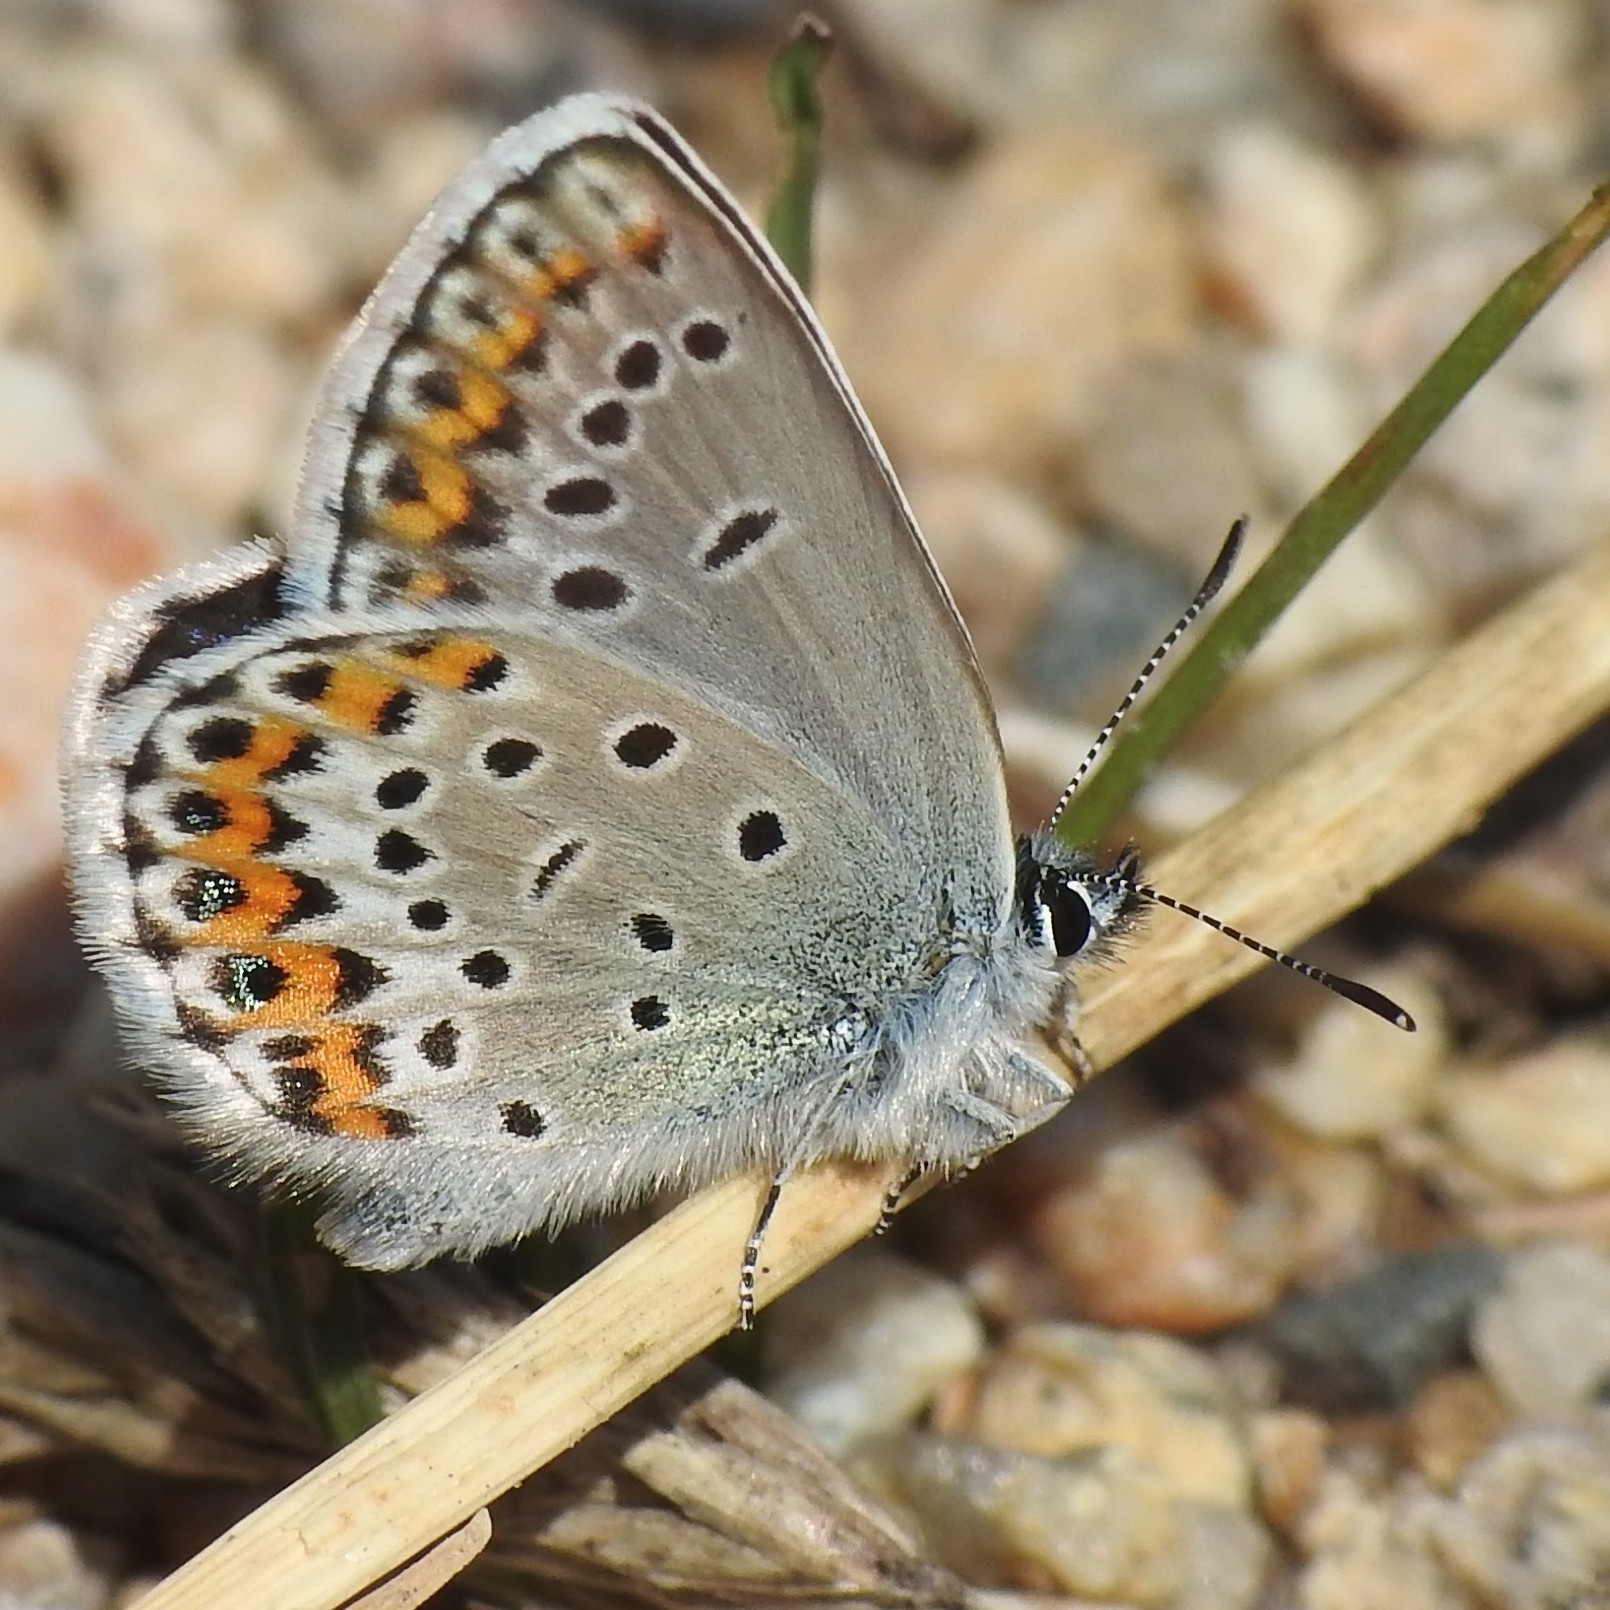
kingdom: Animalia
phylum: Arthropoda
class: Insecta
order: Lepidoptera
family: Lycaenidae
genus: Lycaeides
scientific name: Lycaeides idas
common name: Northern blue
